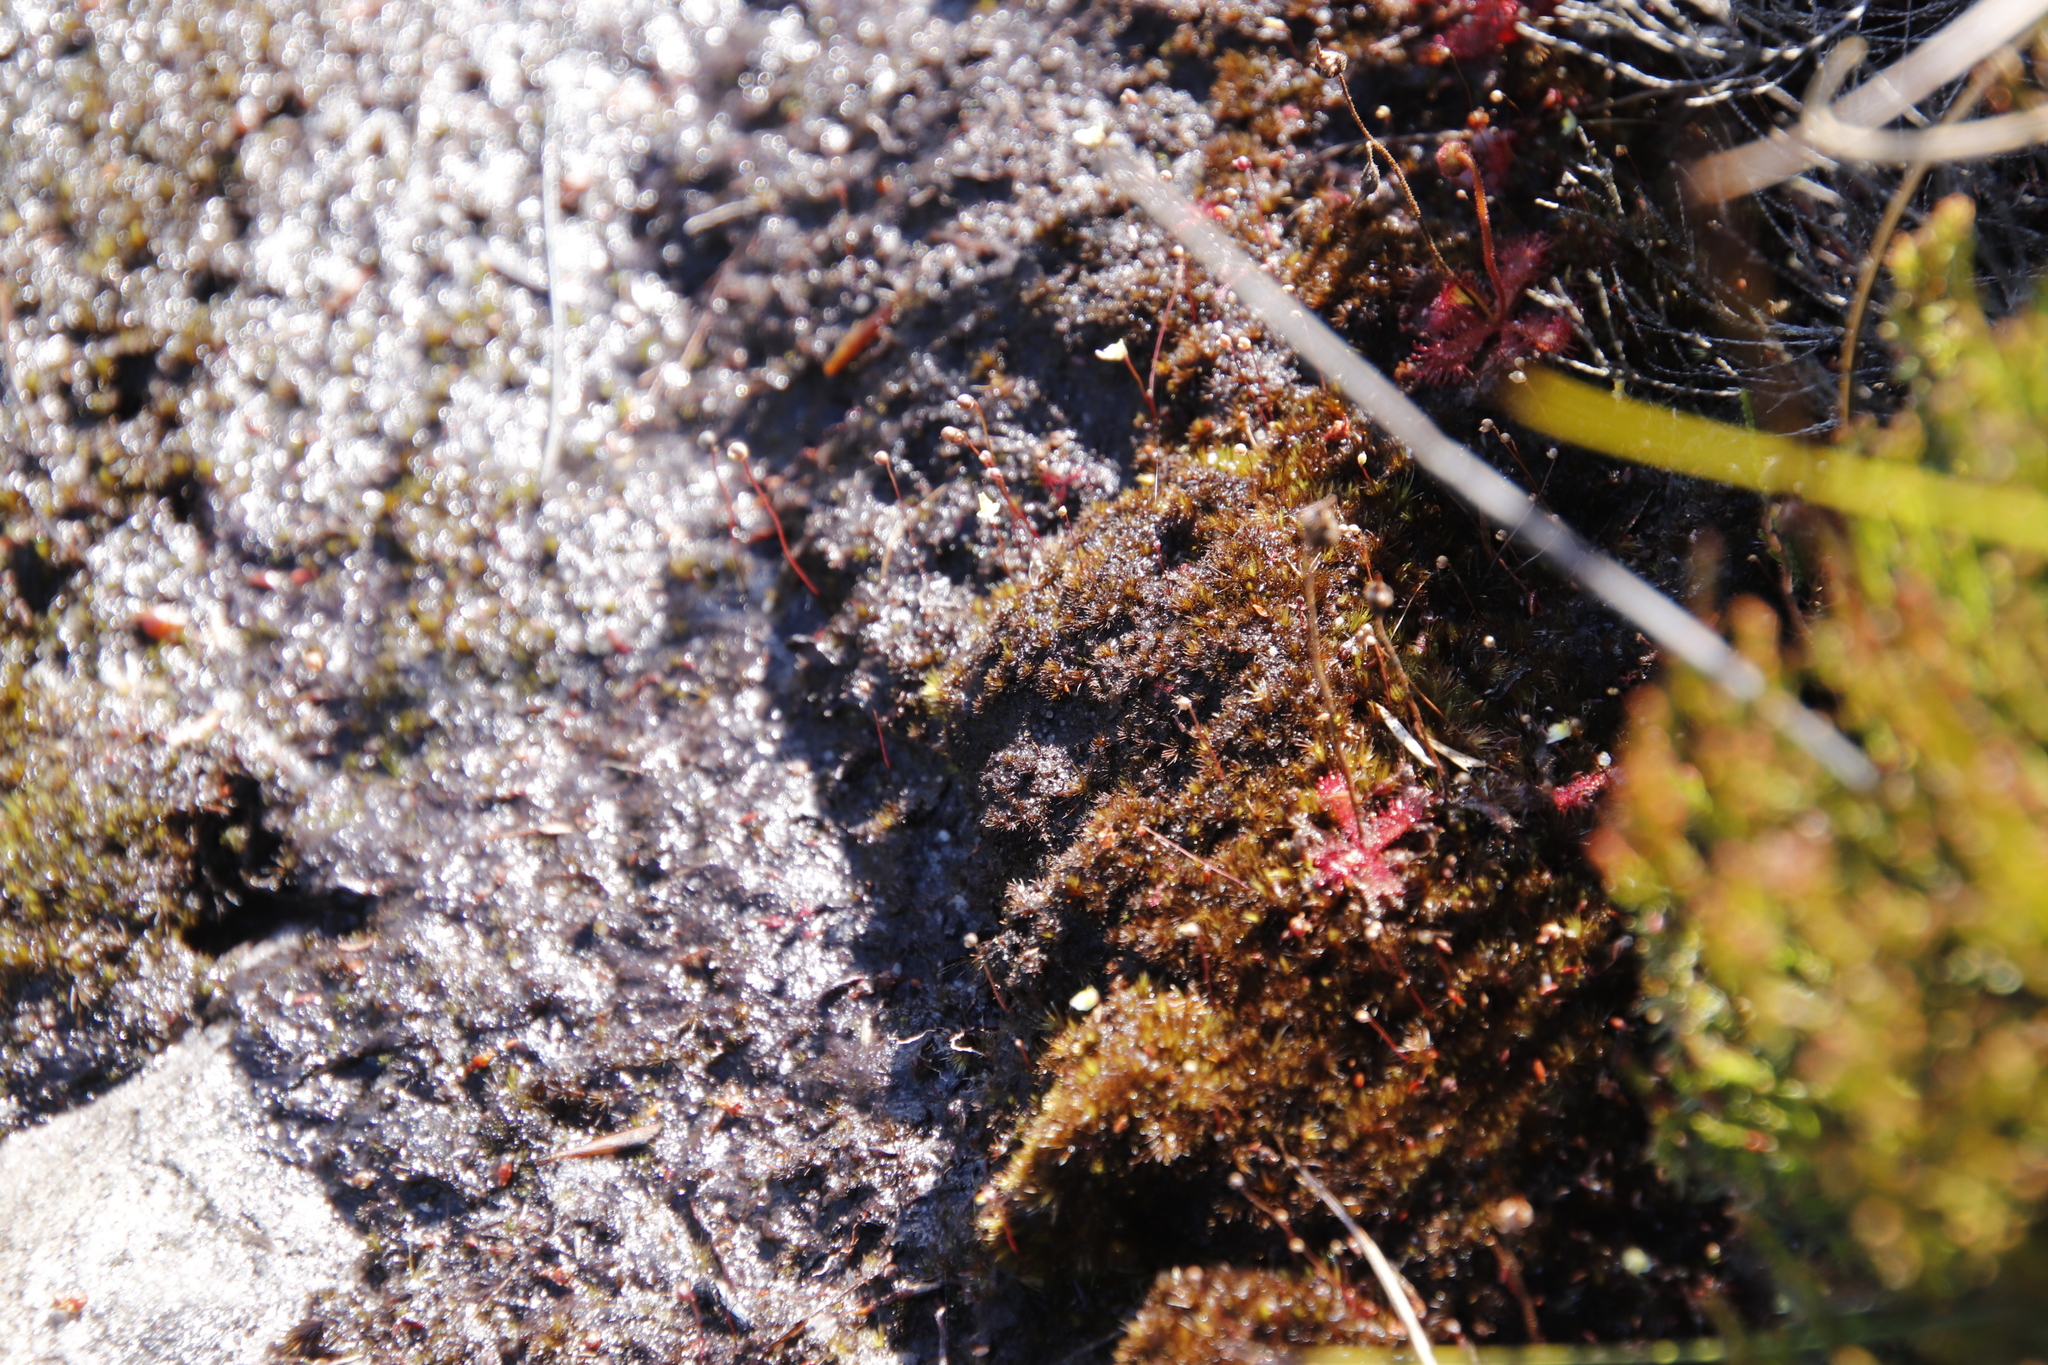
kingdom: Plantae
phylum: Tracheophyta
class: Magnoliopsida
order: Lamiales
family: Lentibulariaceae
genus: Utricularia
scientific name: Utricularia bisquamata
